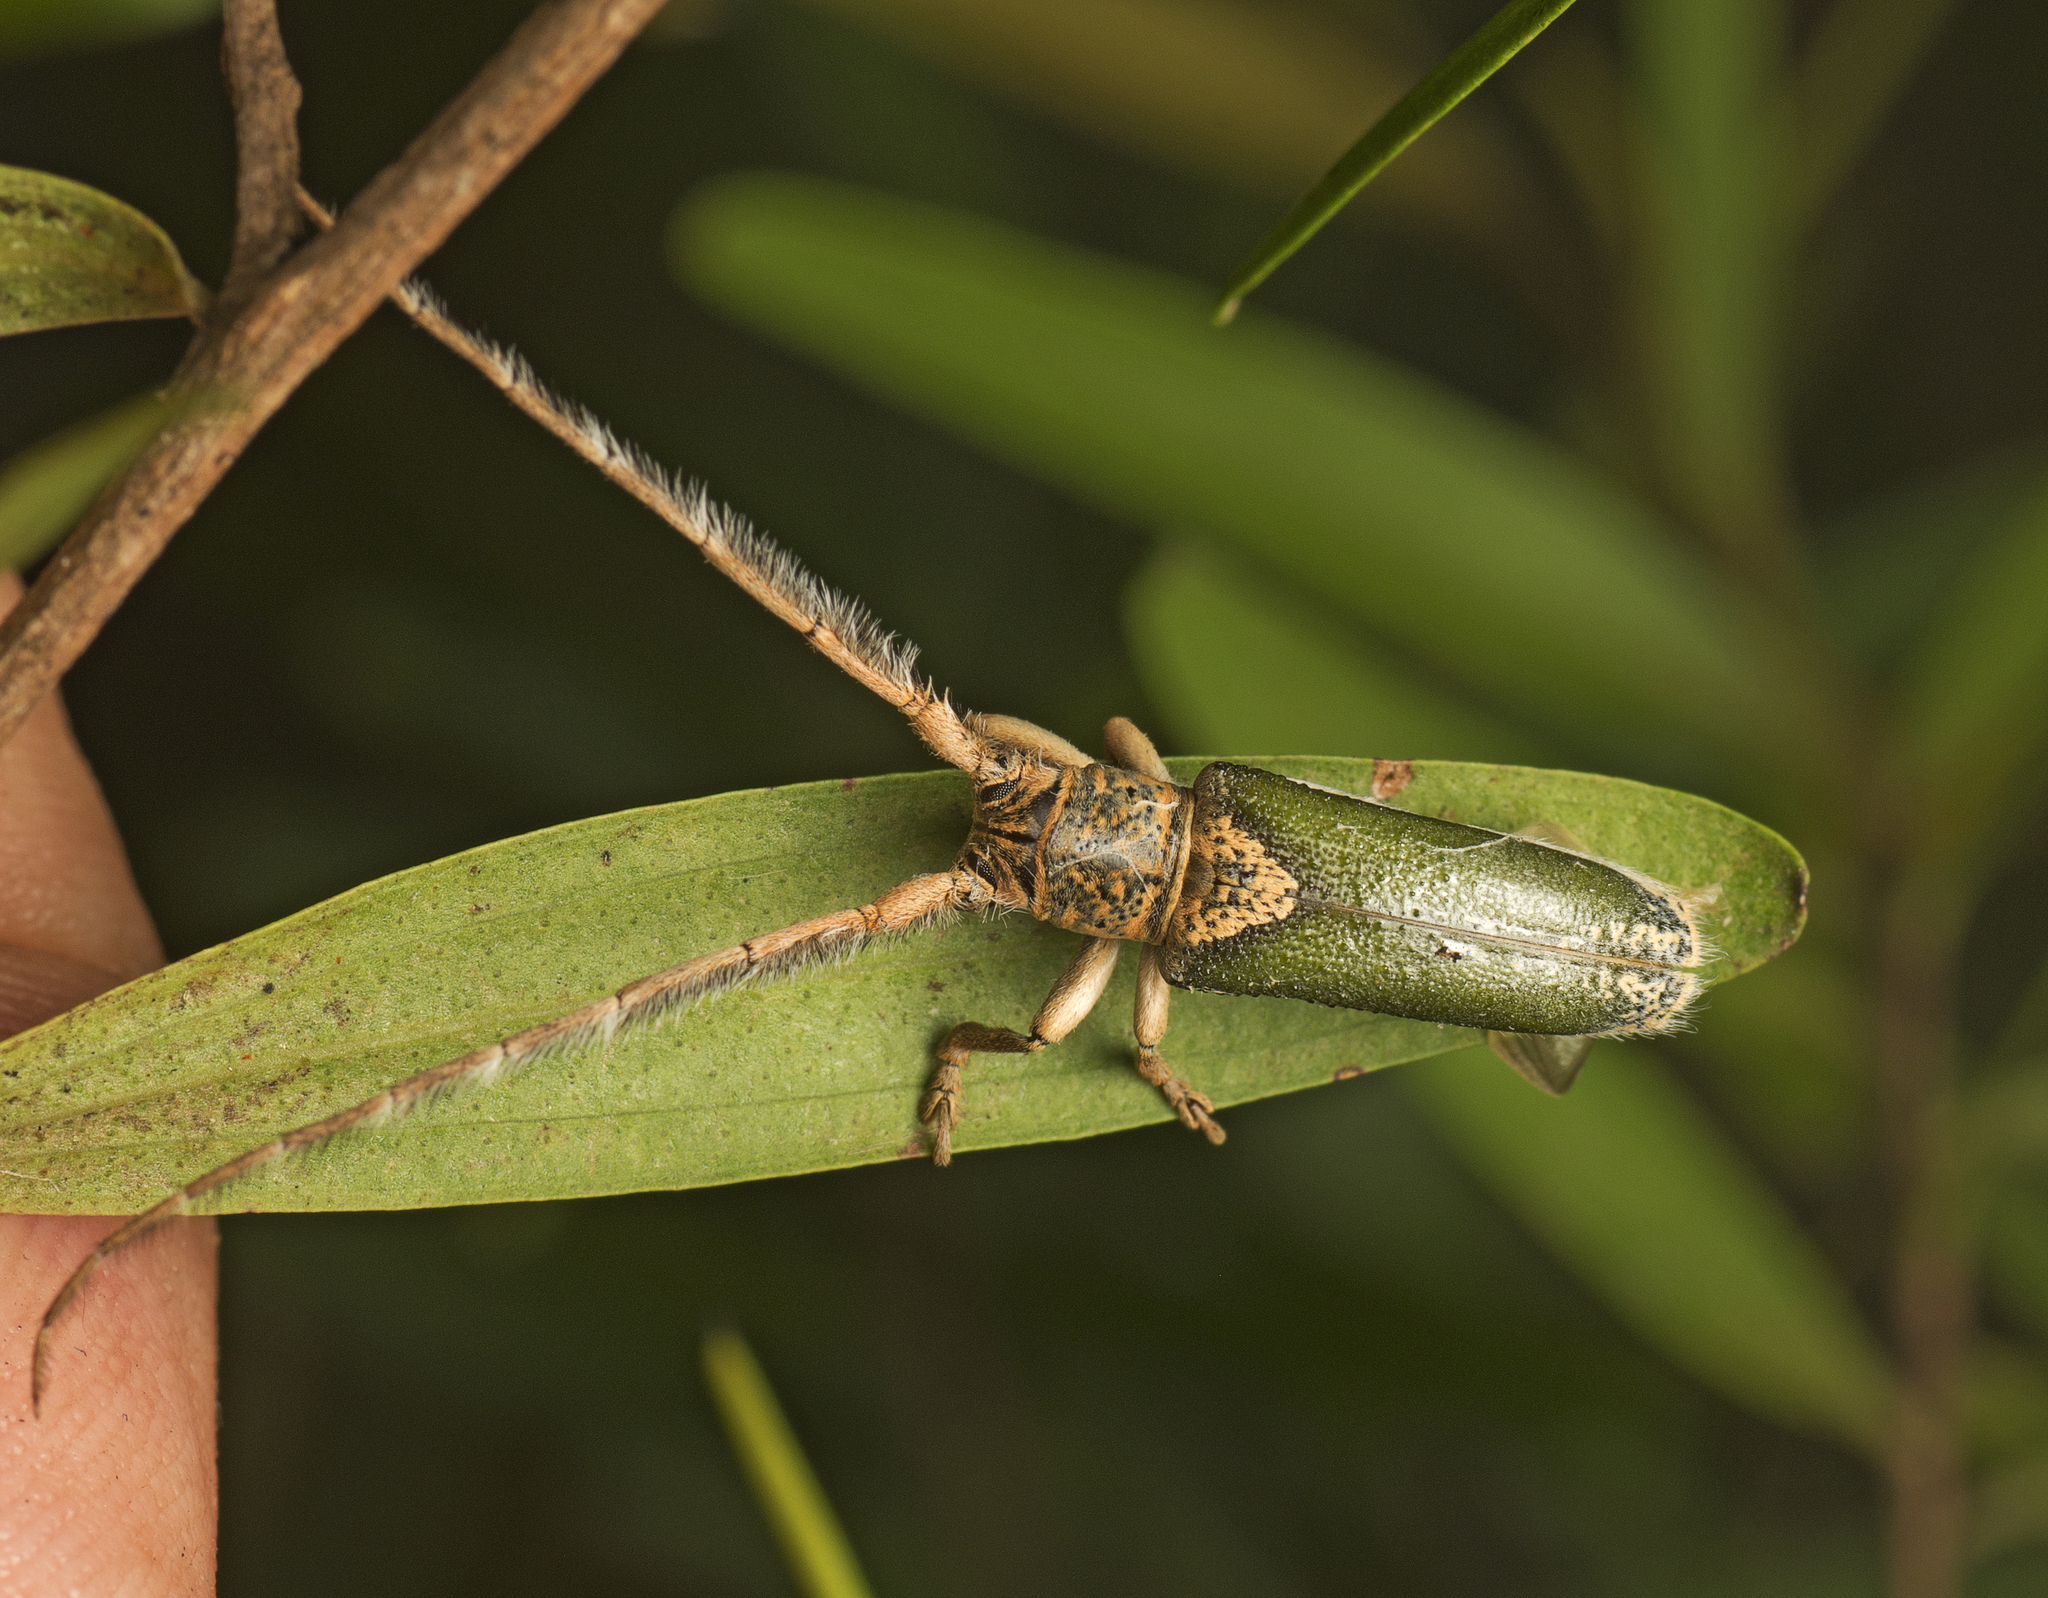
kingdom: Animalia
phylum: Arthropoda
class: Insecta
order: Coleoptera
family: Cerambycidae
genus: Rhytiphora
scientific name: Rhytiphora nigrovirens
